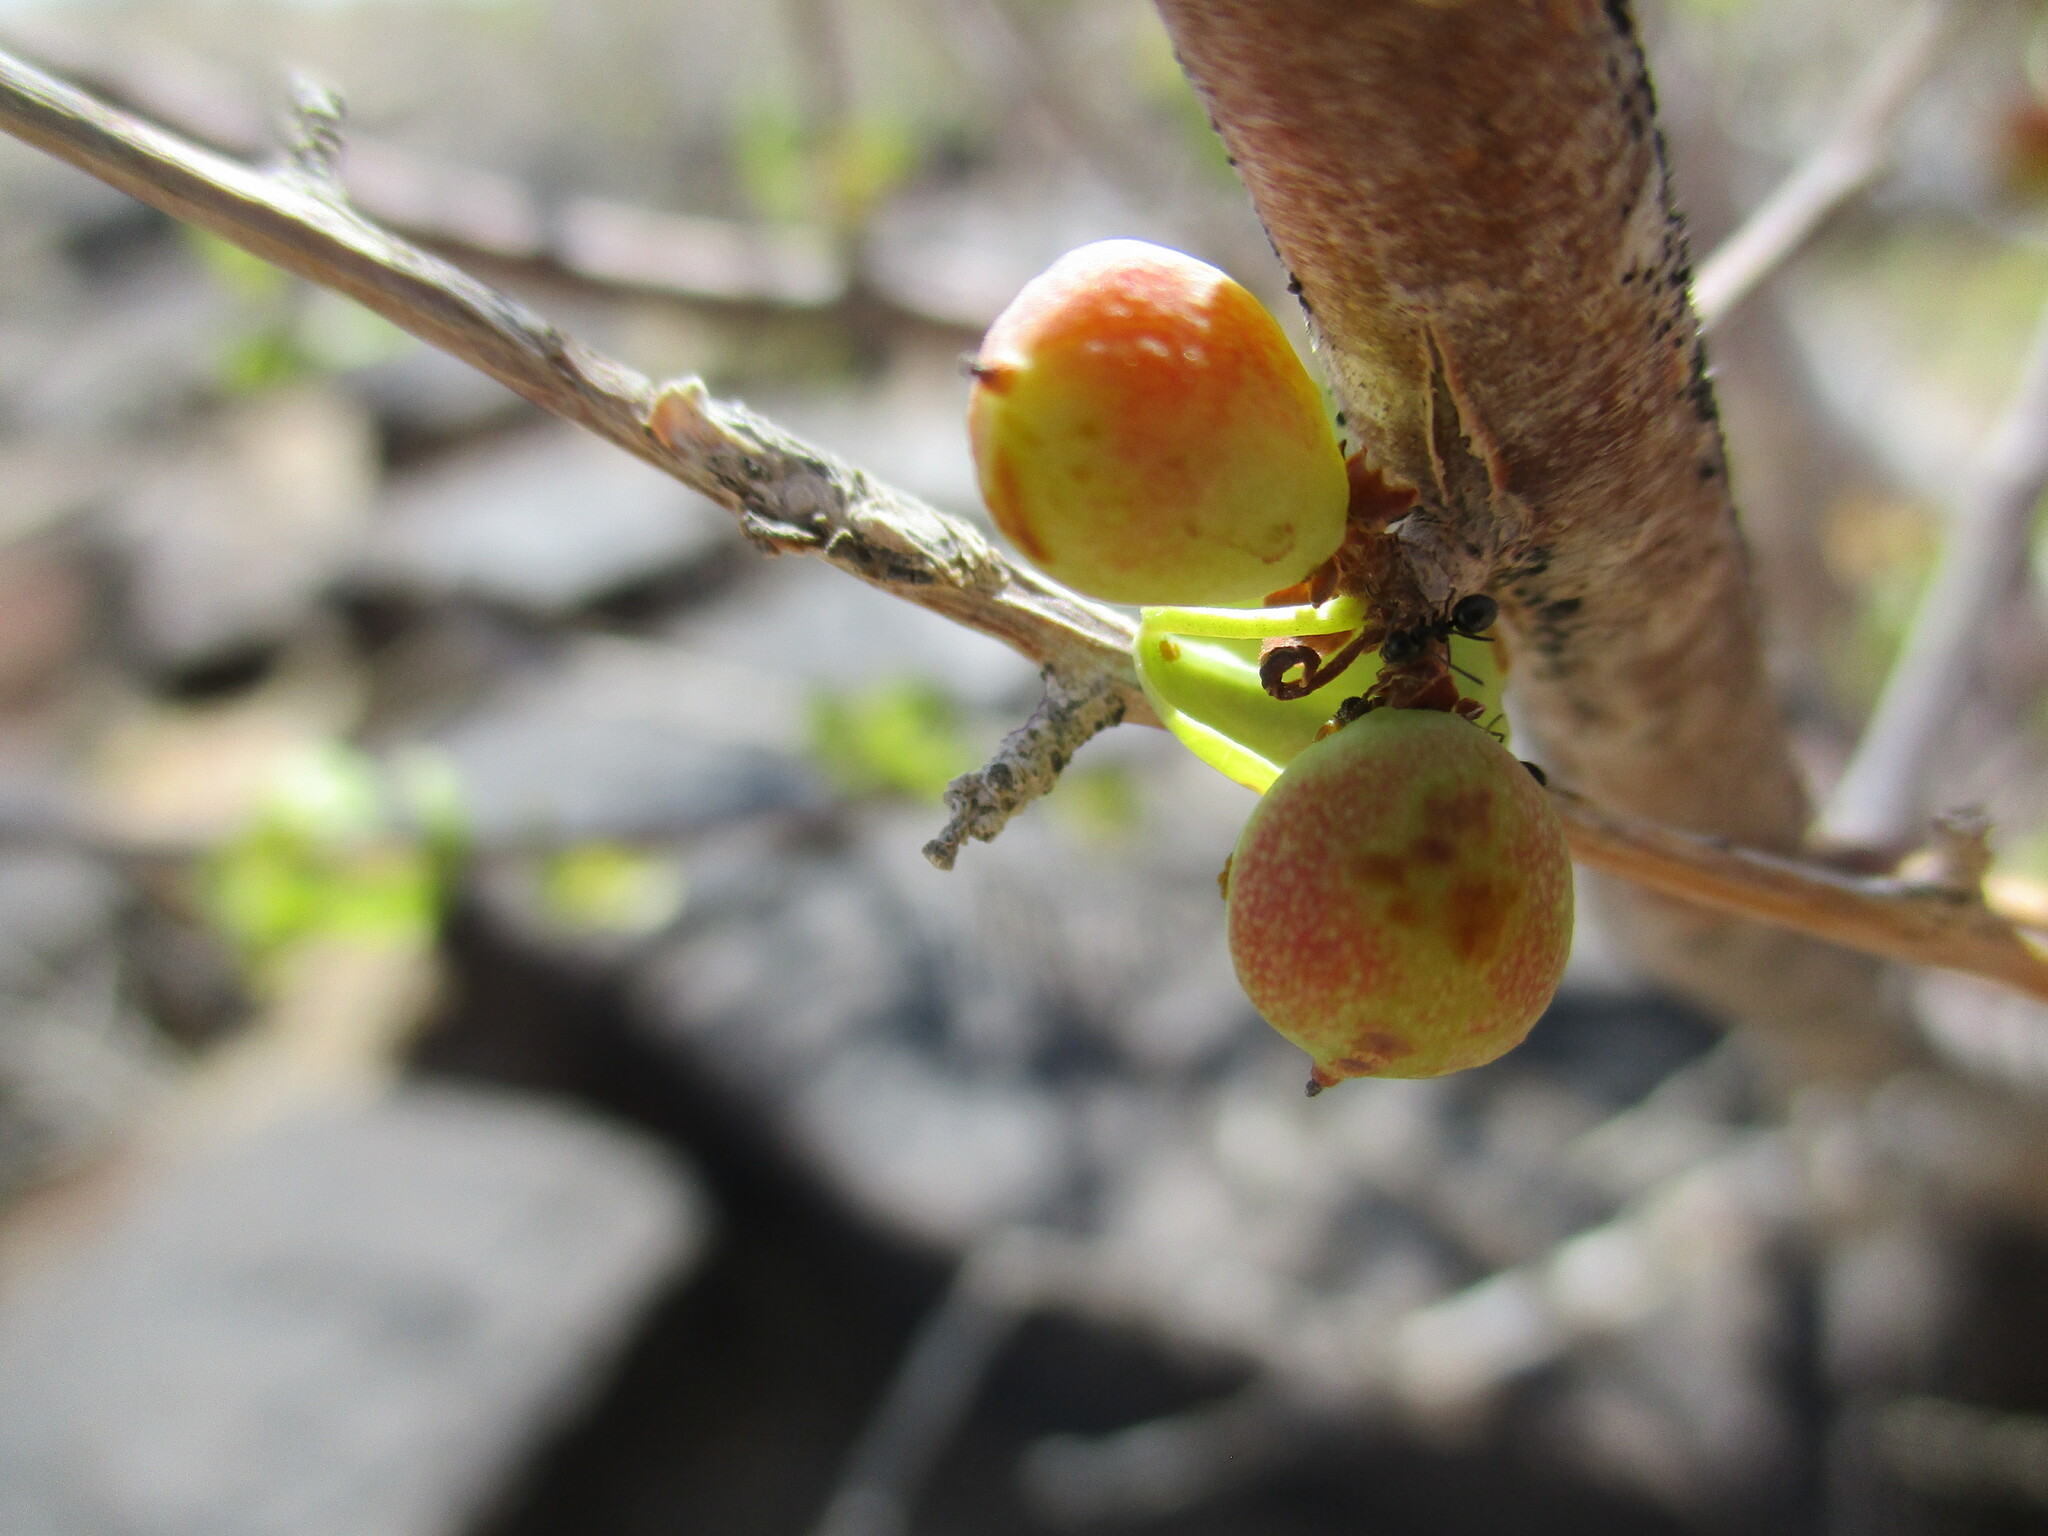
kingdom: Plantae
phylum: Tracheophyta
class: Magnoliopsida
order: Sapindales
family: Burseraceae
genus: Commiphora
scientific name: Commiphora virgata
